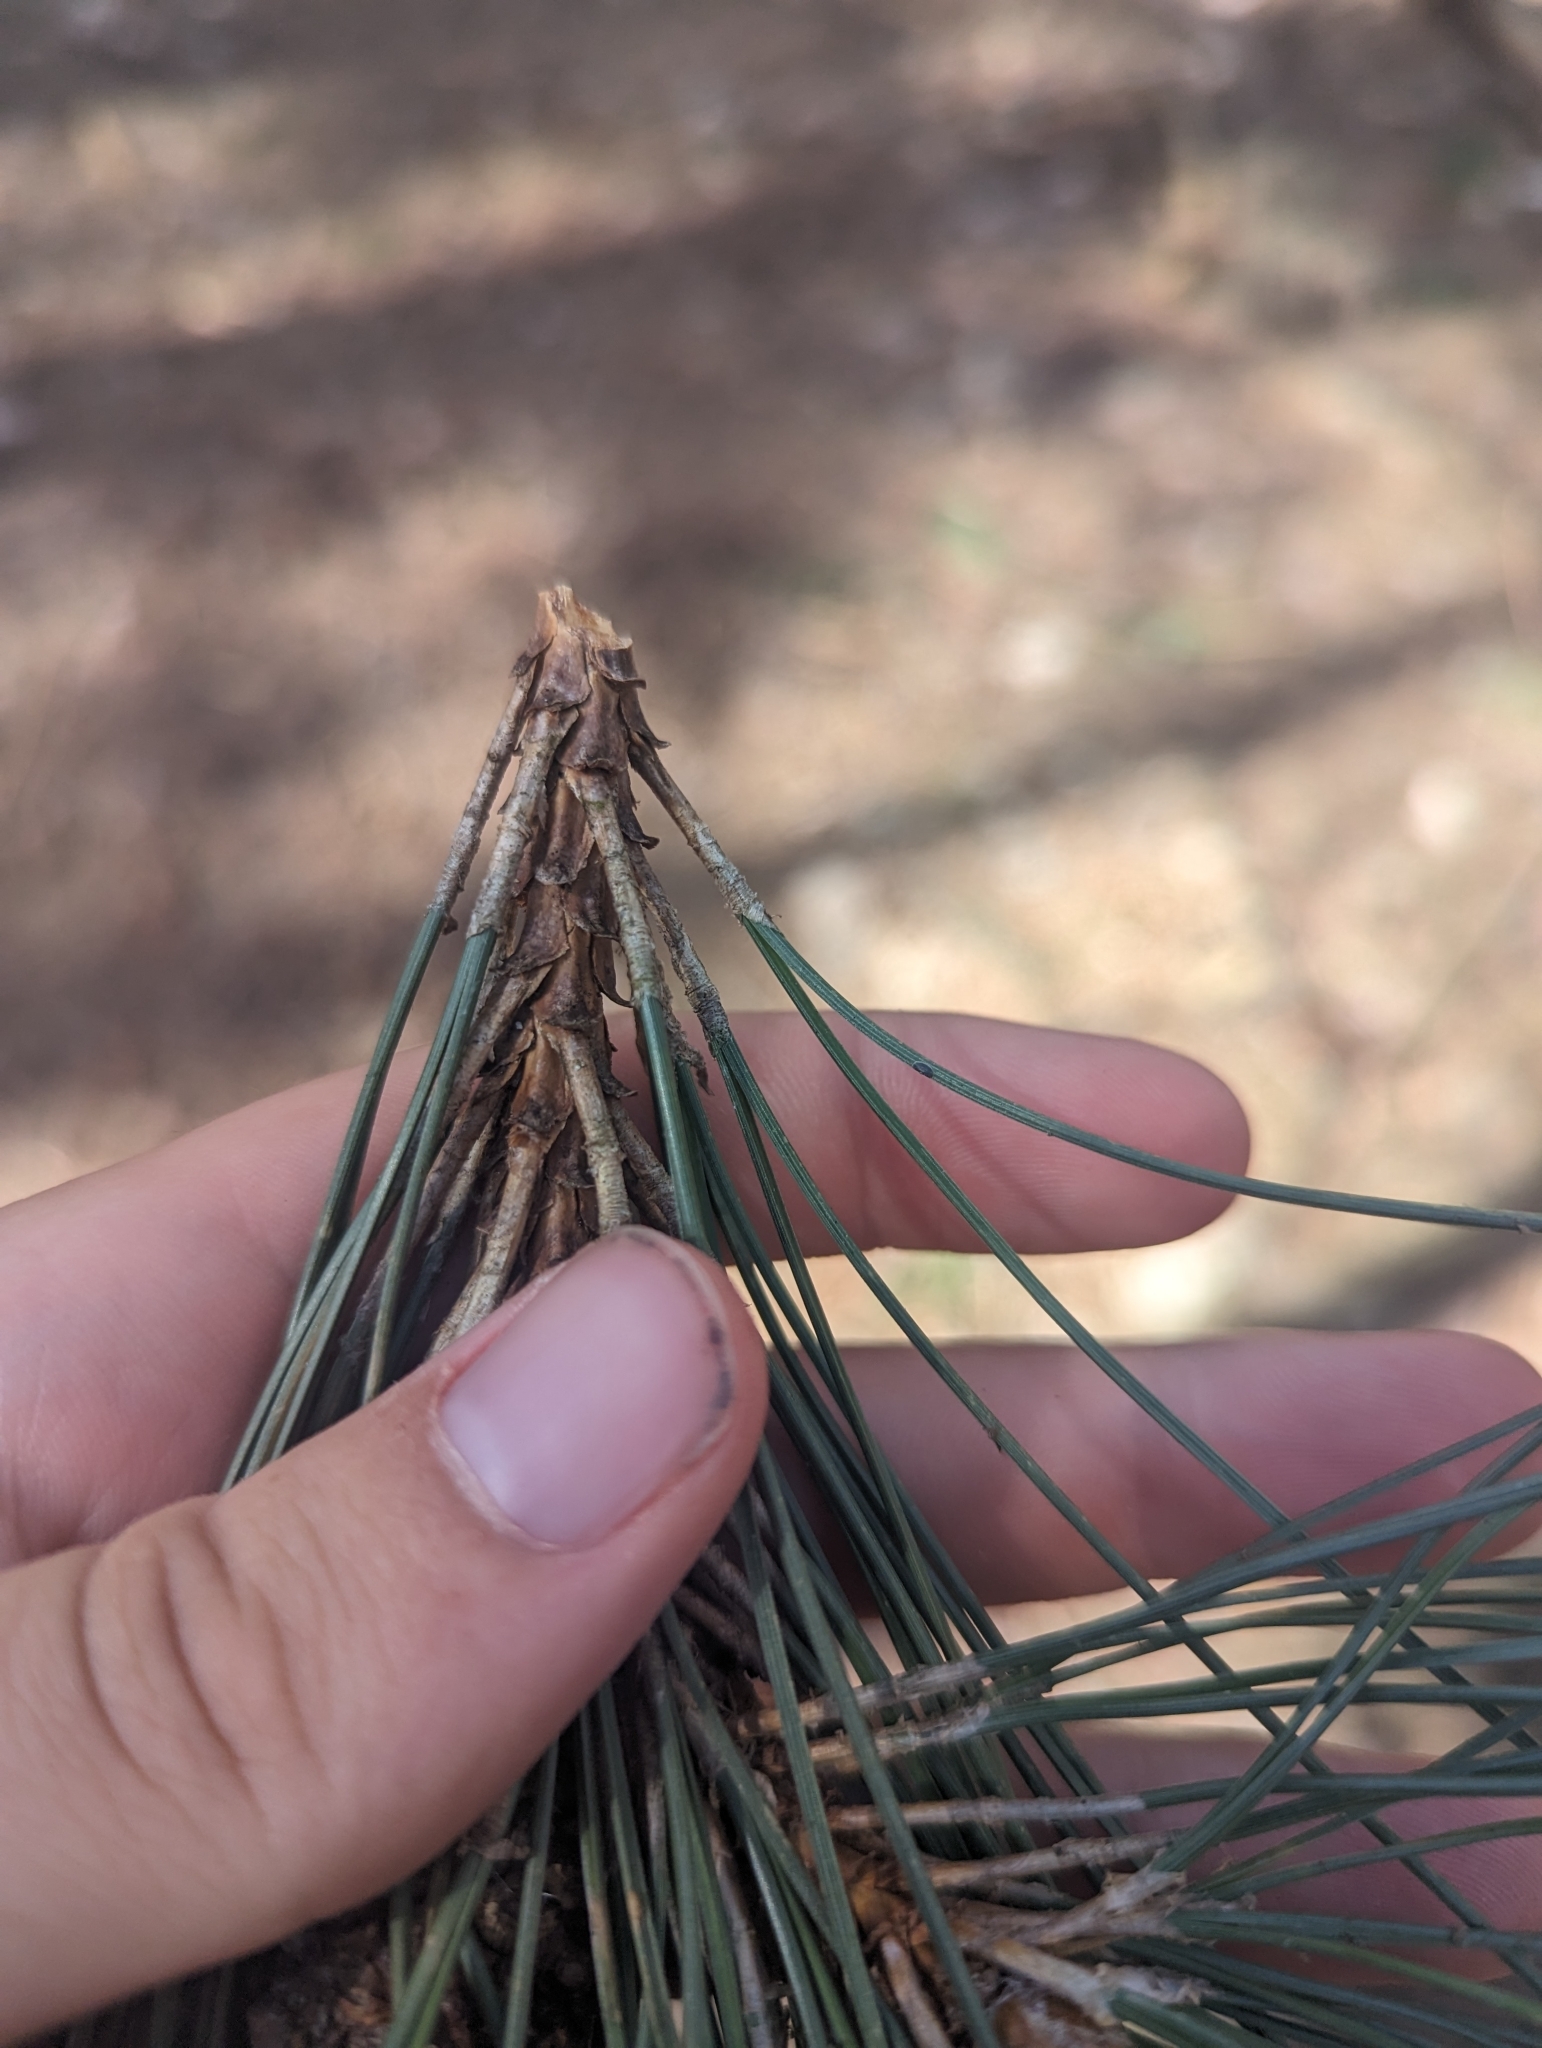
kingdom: Plantae
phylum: Tracheophyta
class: Pinopsida
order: Pinales
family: Pinaceae
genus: Pinus
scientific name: Pinus resinosa
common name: Norway pine
